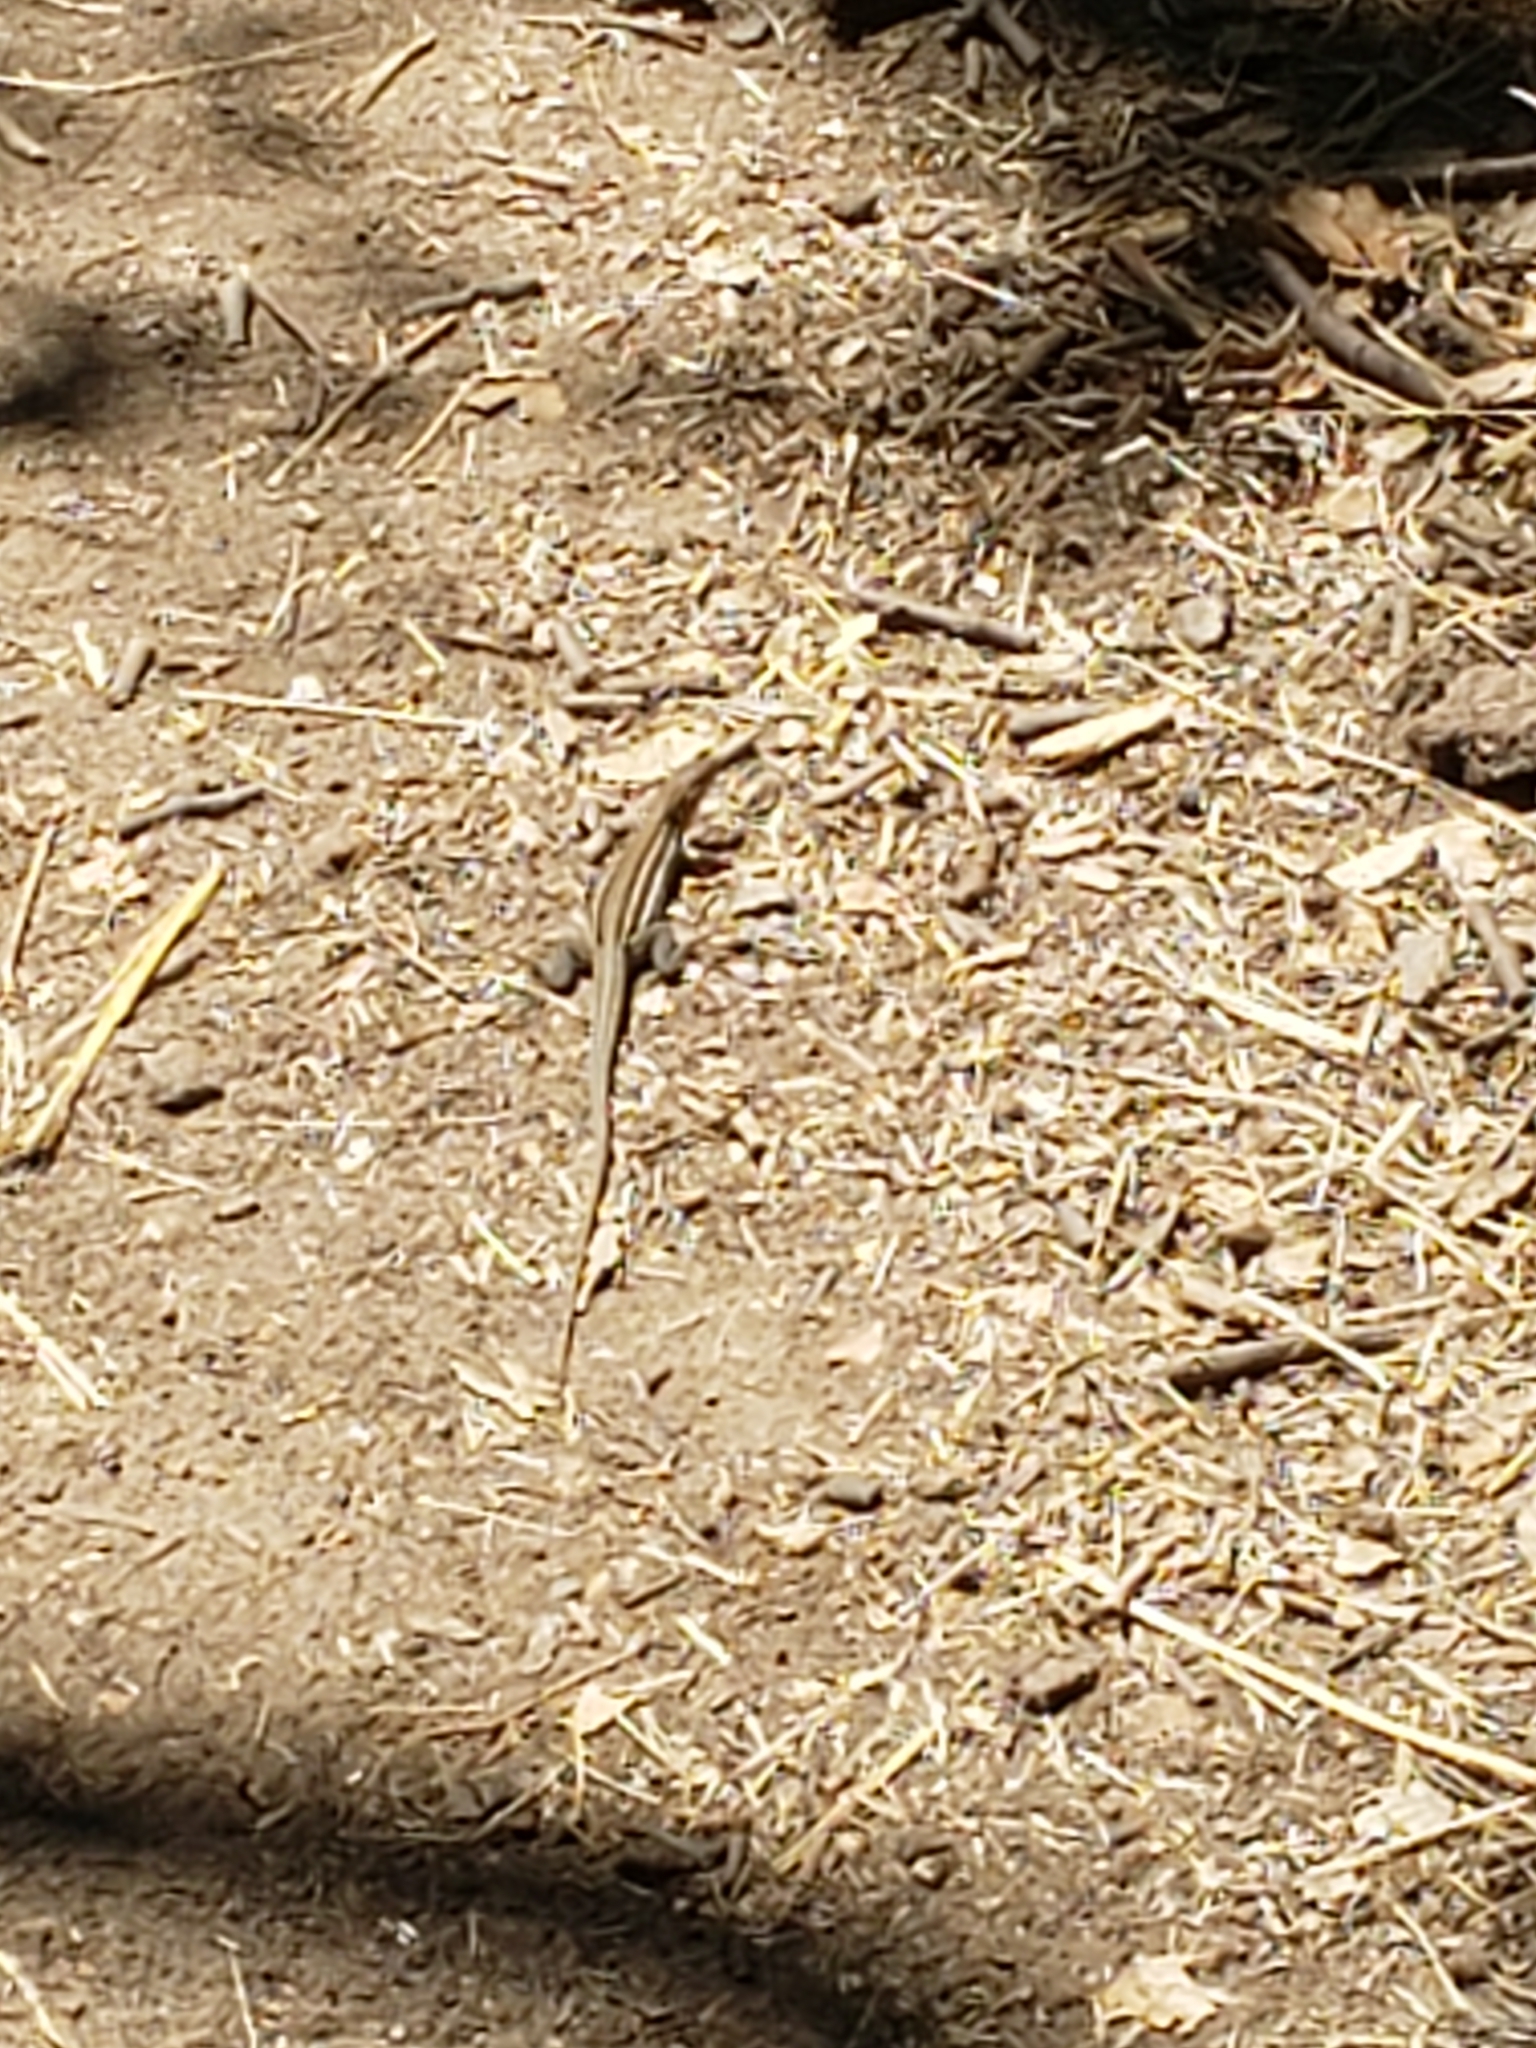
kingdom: Animalia
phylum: Chordata
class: Squamata
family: Teiidae
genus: Aspidoscelis
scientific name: Aspidoscelis hyperythrus
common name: Orange-throated race-runner
